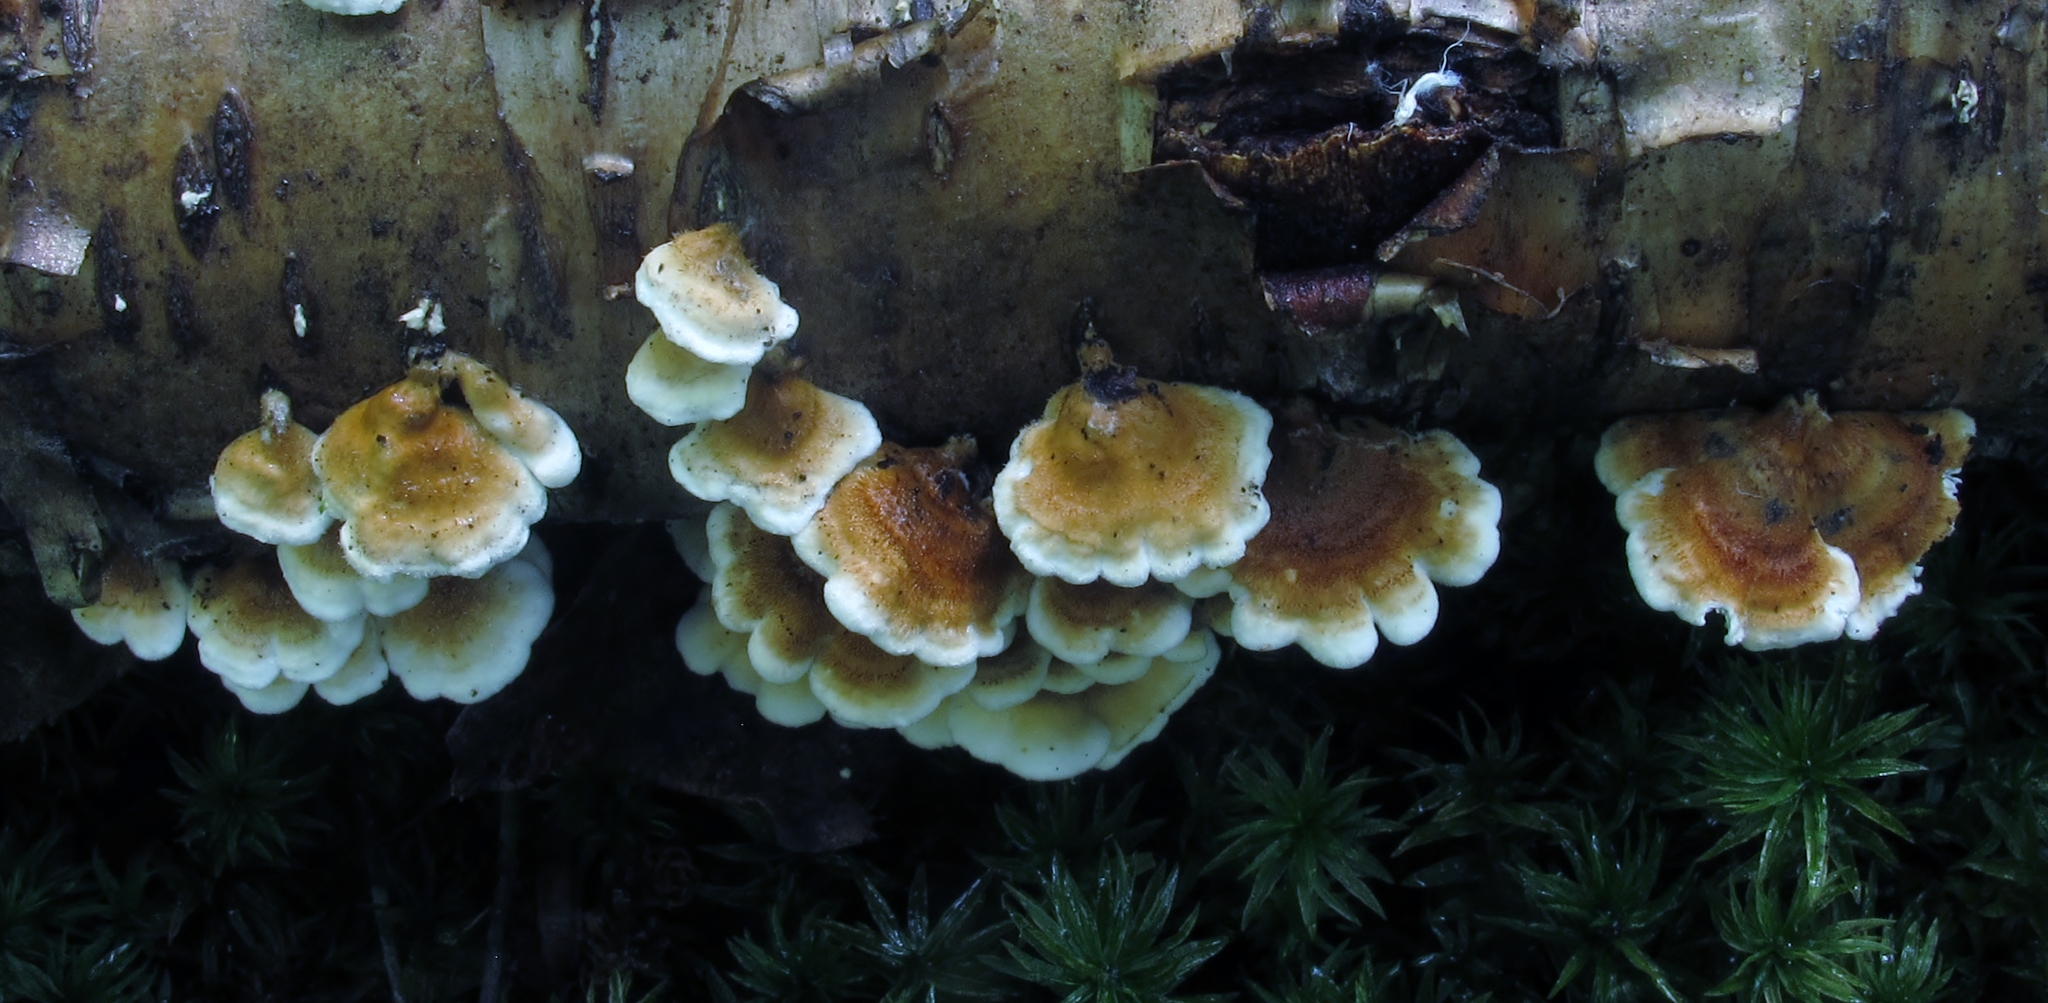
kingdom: Fungi
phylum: Basidiomycota
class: Agaricomycetes
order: Amylocorticiales
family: Amylocorticiaceae
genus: Plicaturopsis
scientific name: Plicaturopsis crispa
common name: Crimped gill
